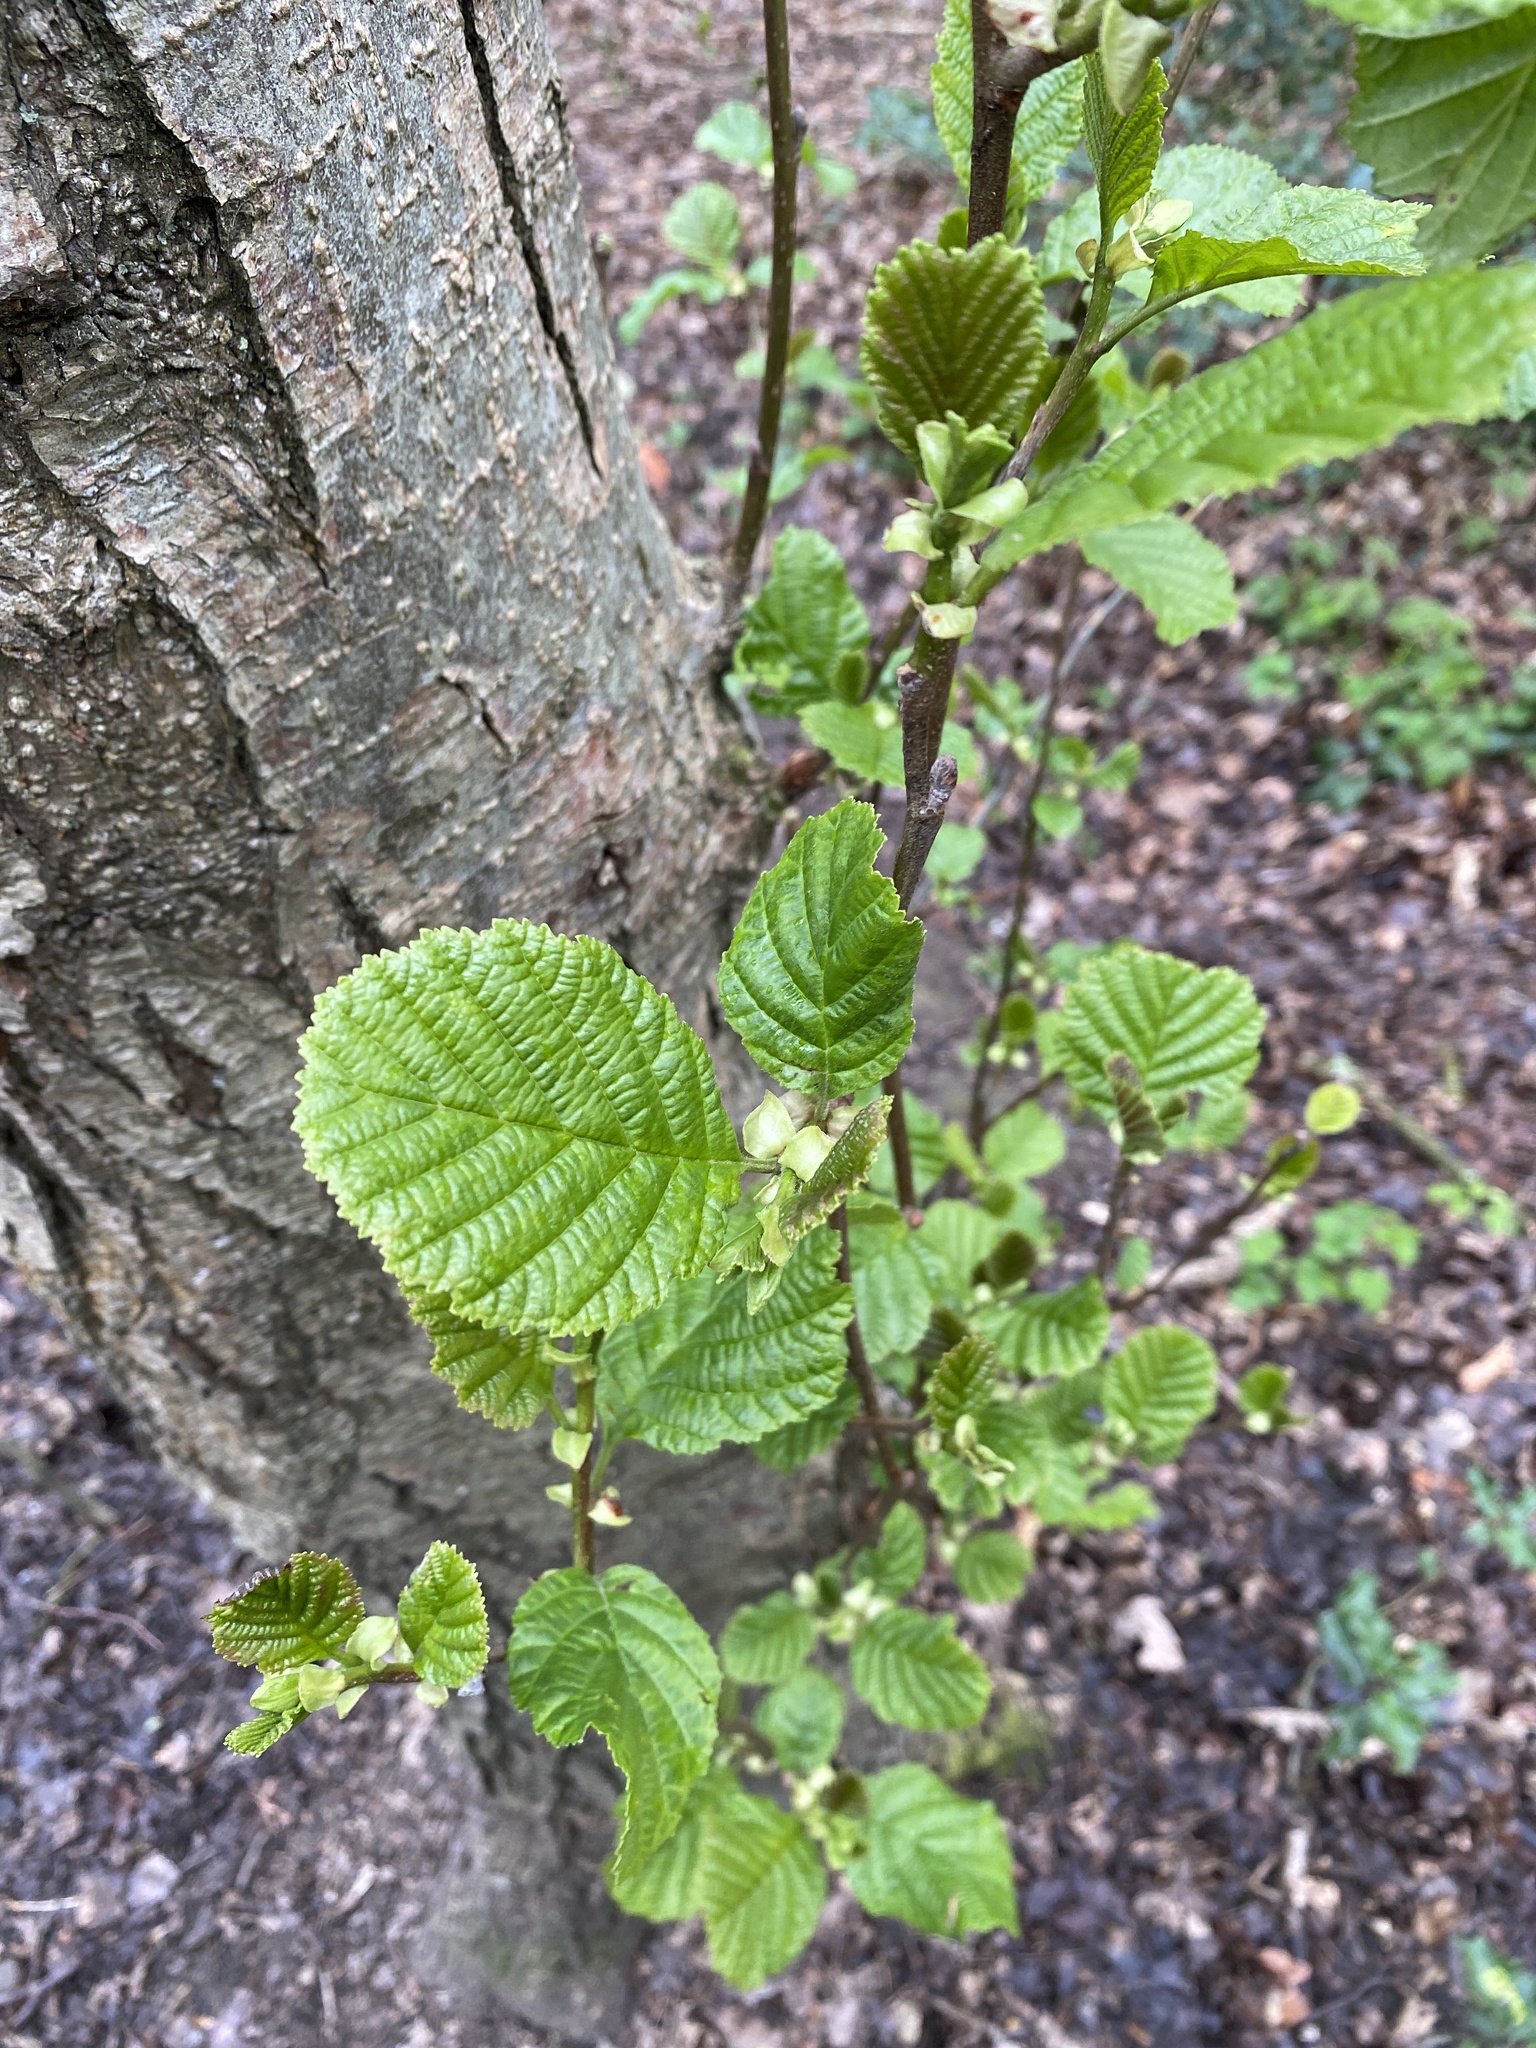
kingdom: Plantae
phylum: Tracheophyta
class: Magnoliopsida
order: Fagales
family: Betulaceae
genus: Alnus
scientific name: Alnus glutinosa
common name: Black alder
